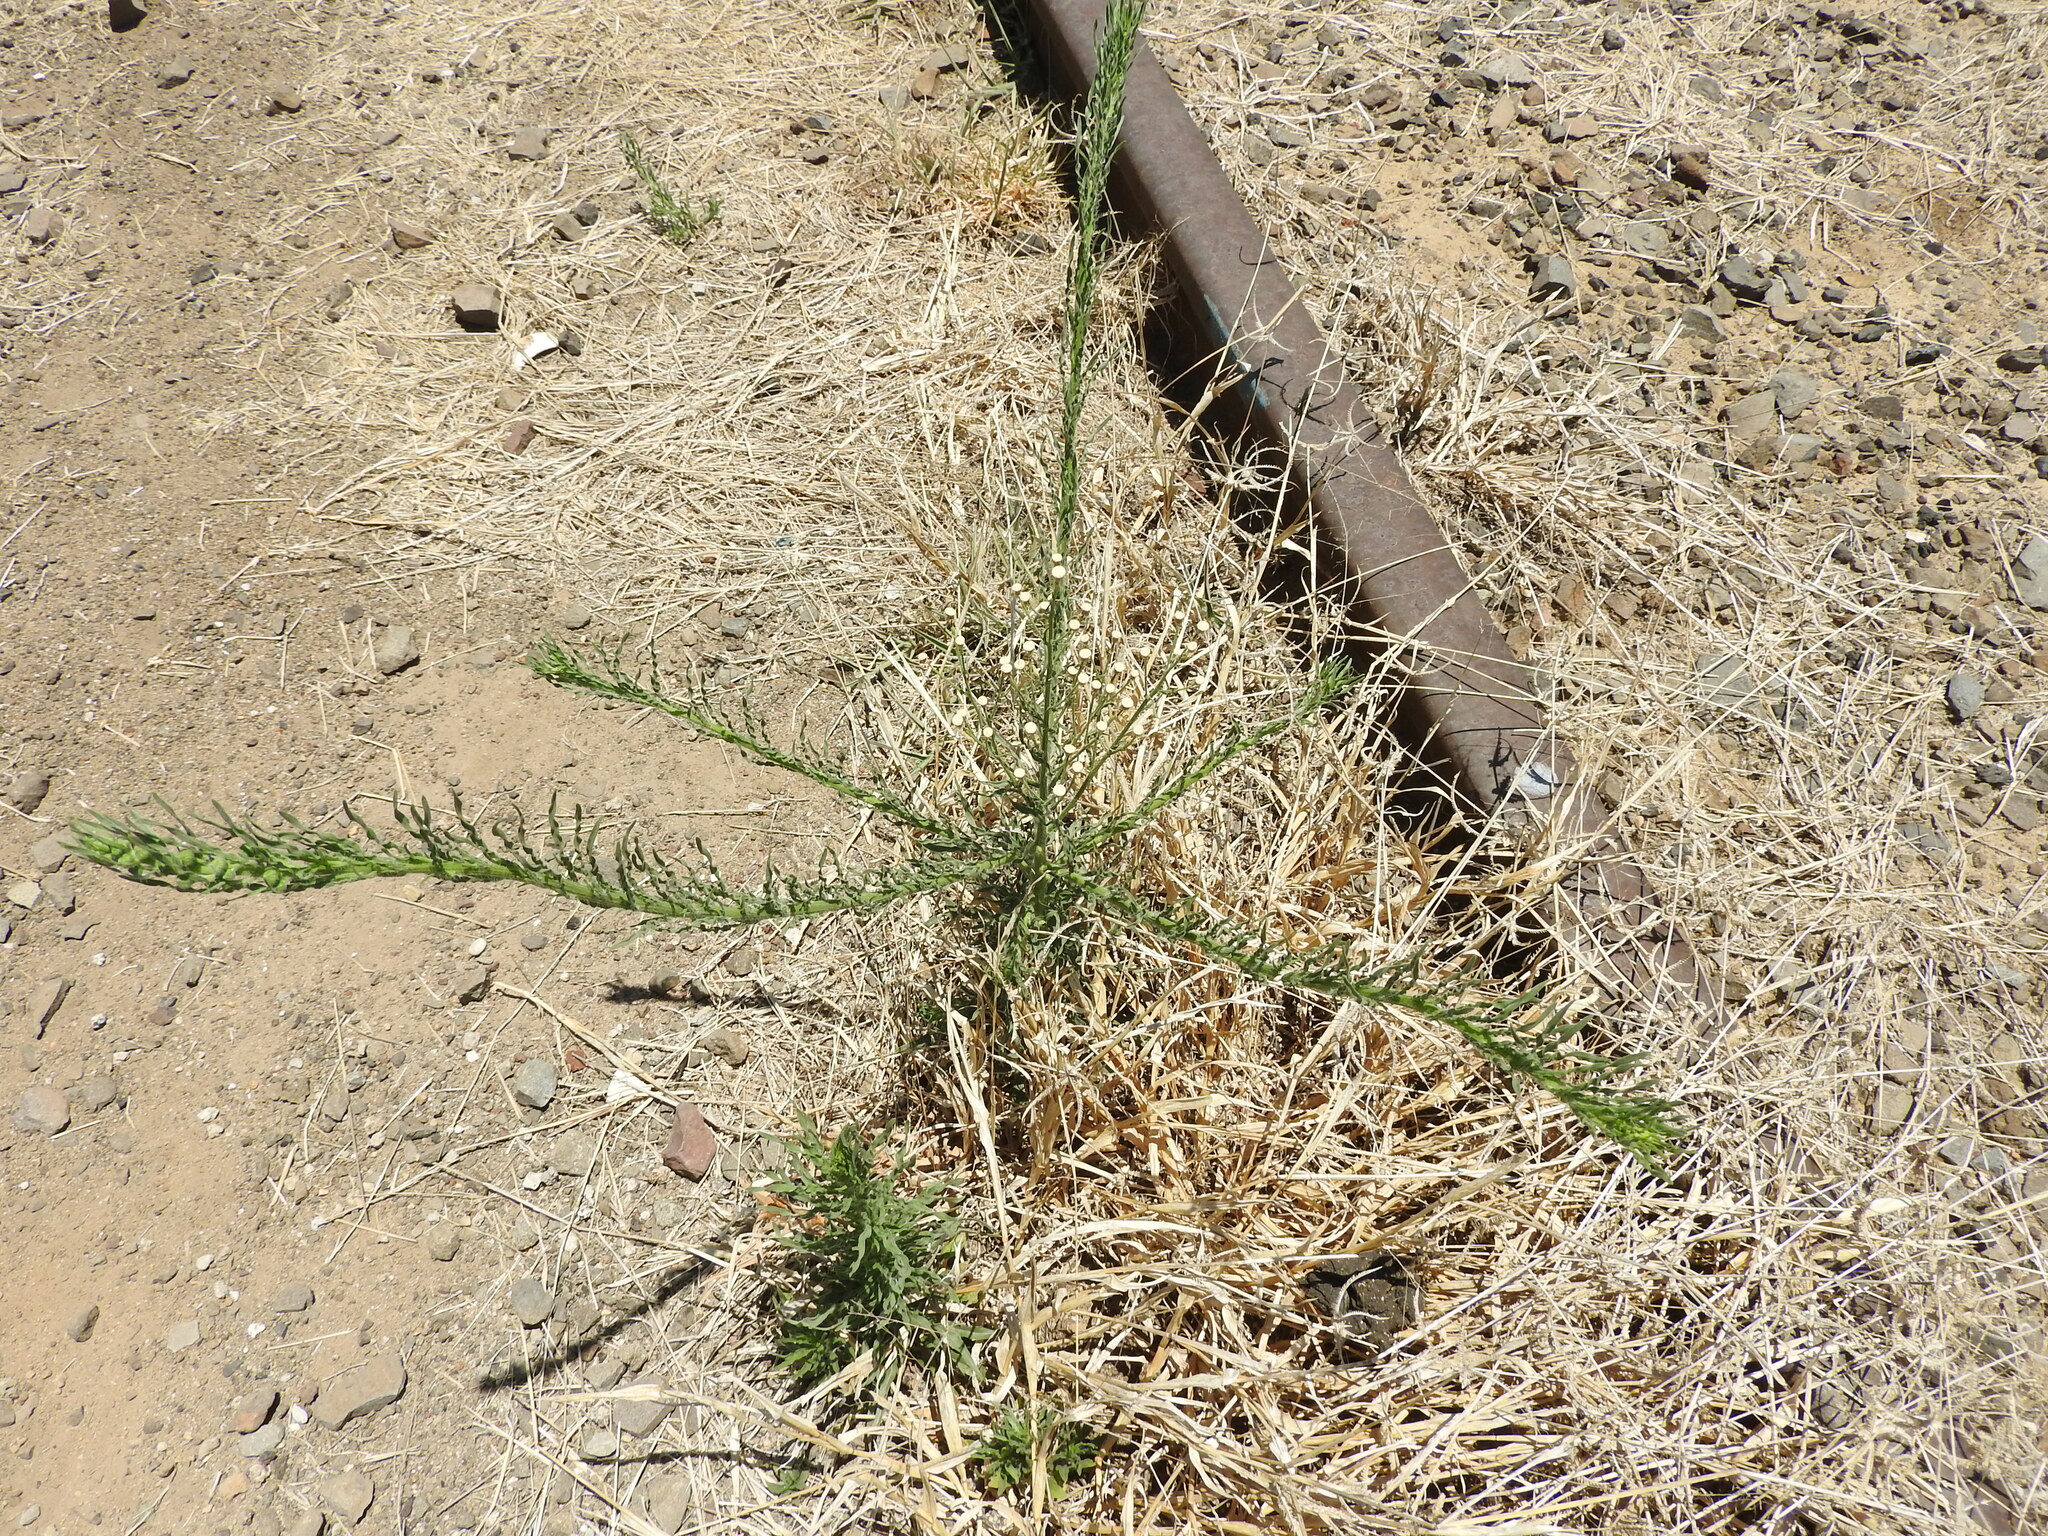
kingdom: Plantae
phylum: Tracheophyta
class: Magnoliopsida
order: Asterales
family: Asteraceae
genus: Erigeron
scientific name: Erigeron canadensis
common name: Canadian fleabane
